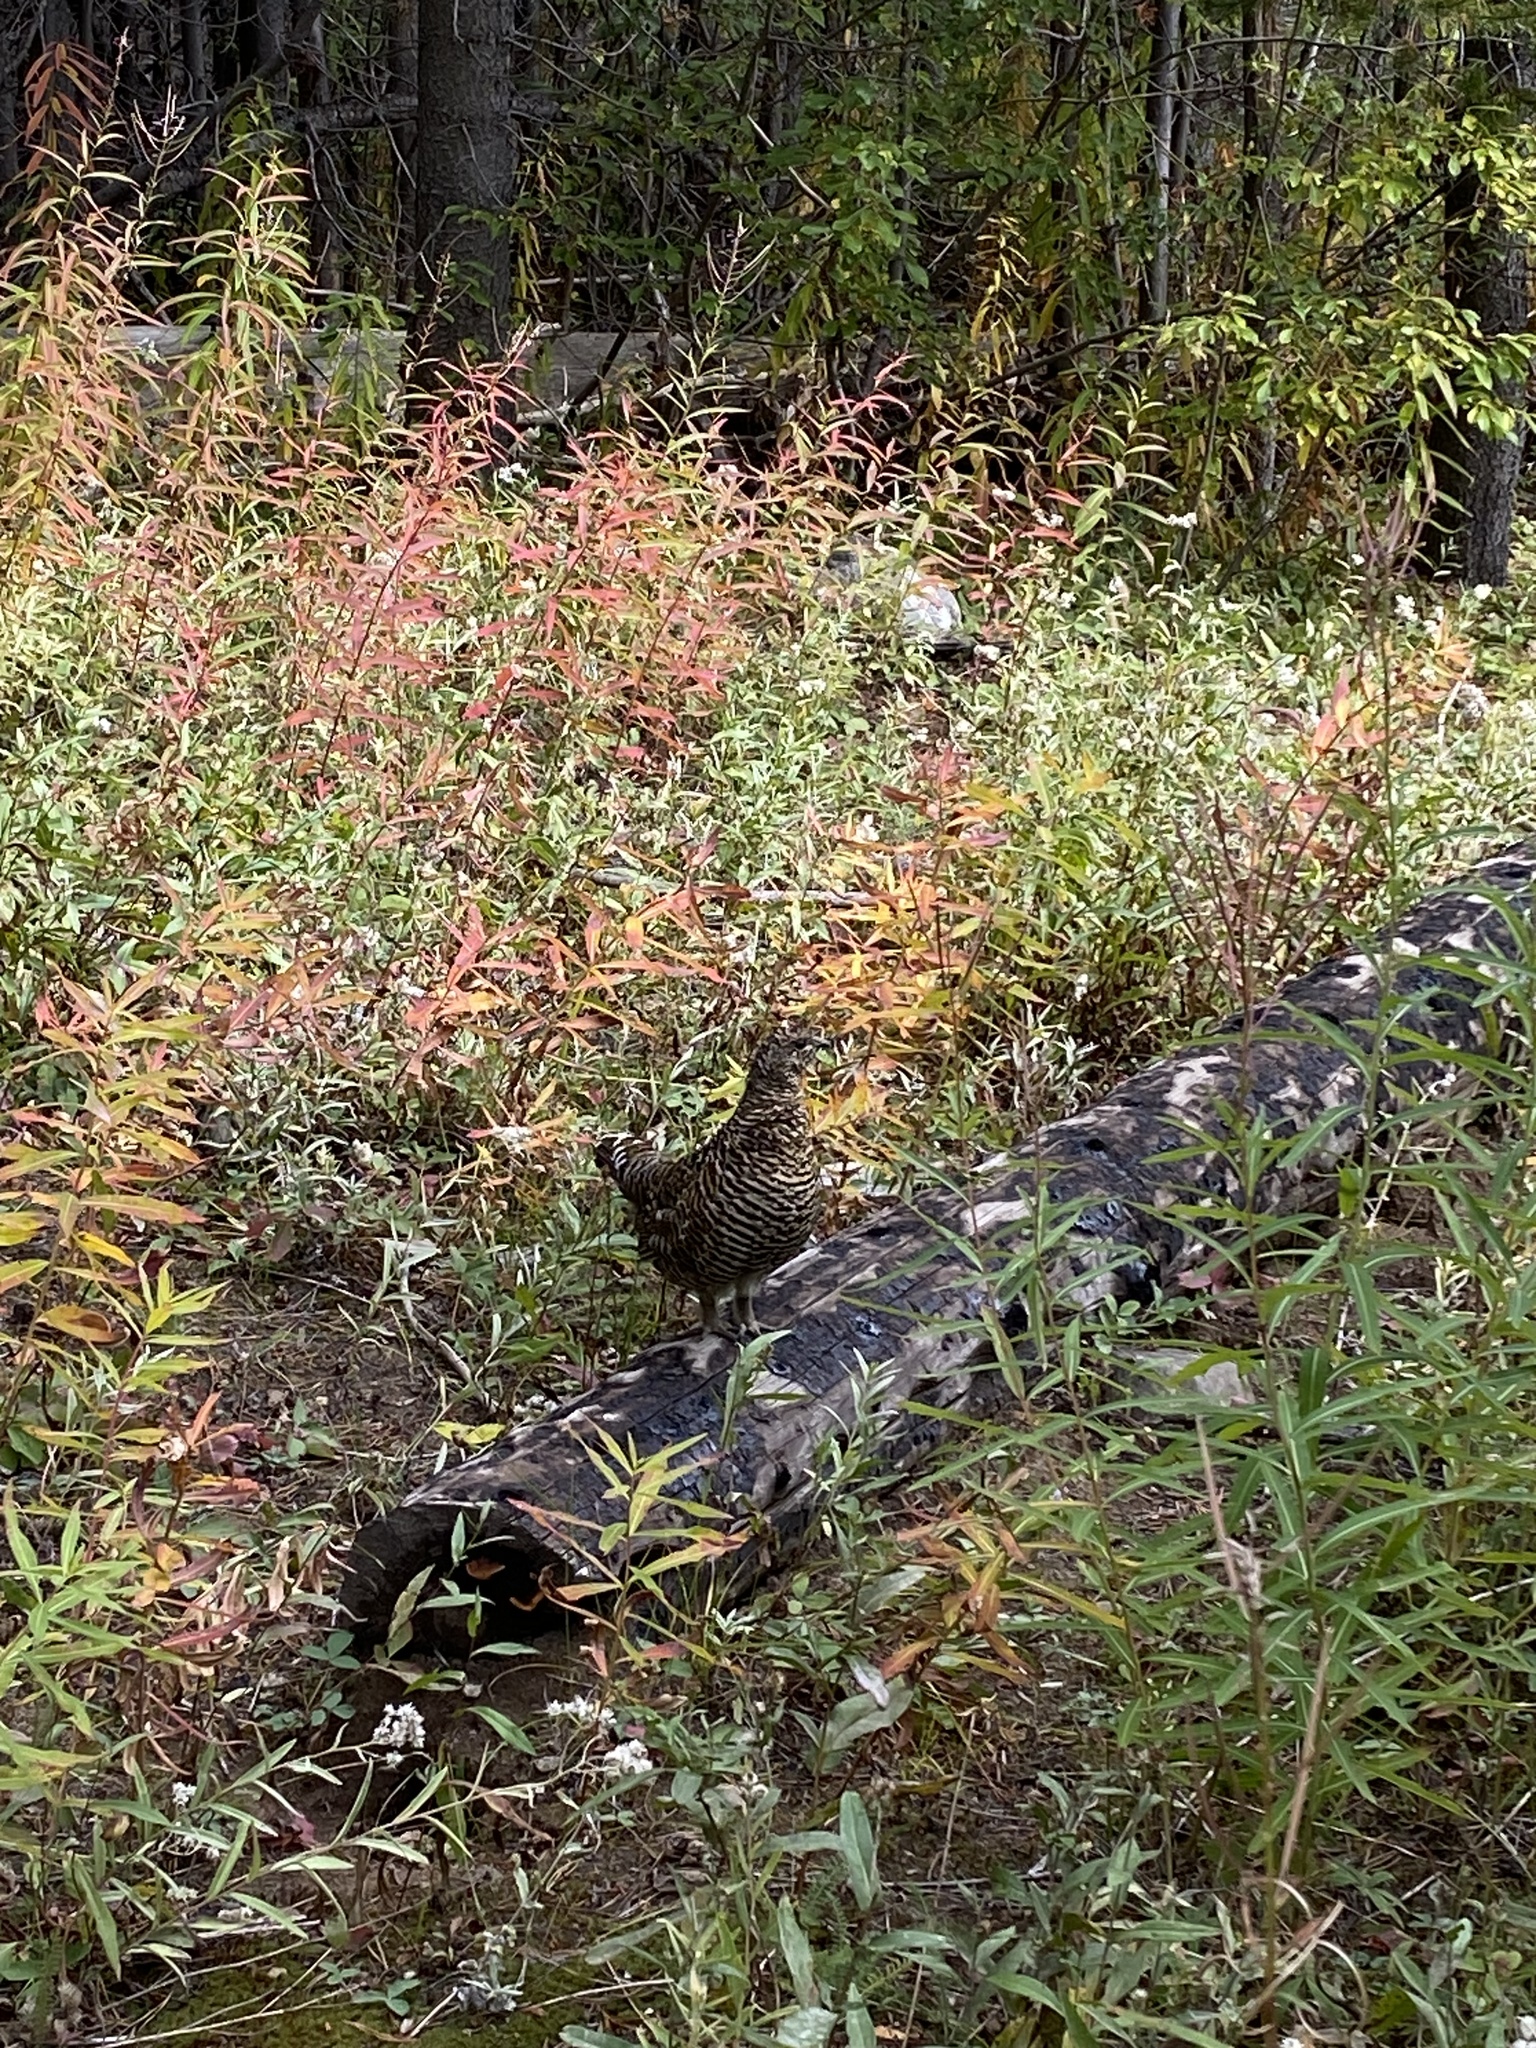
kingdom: Animalia
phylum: Chordata
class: Aves
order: Galliformes
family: Phasianidae
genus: Canachites
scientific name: Canachites canadensis
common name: Spruce grouse
